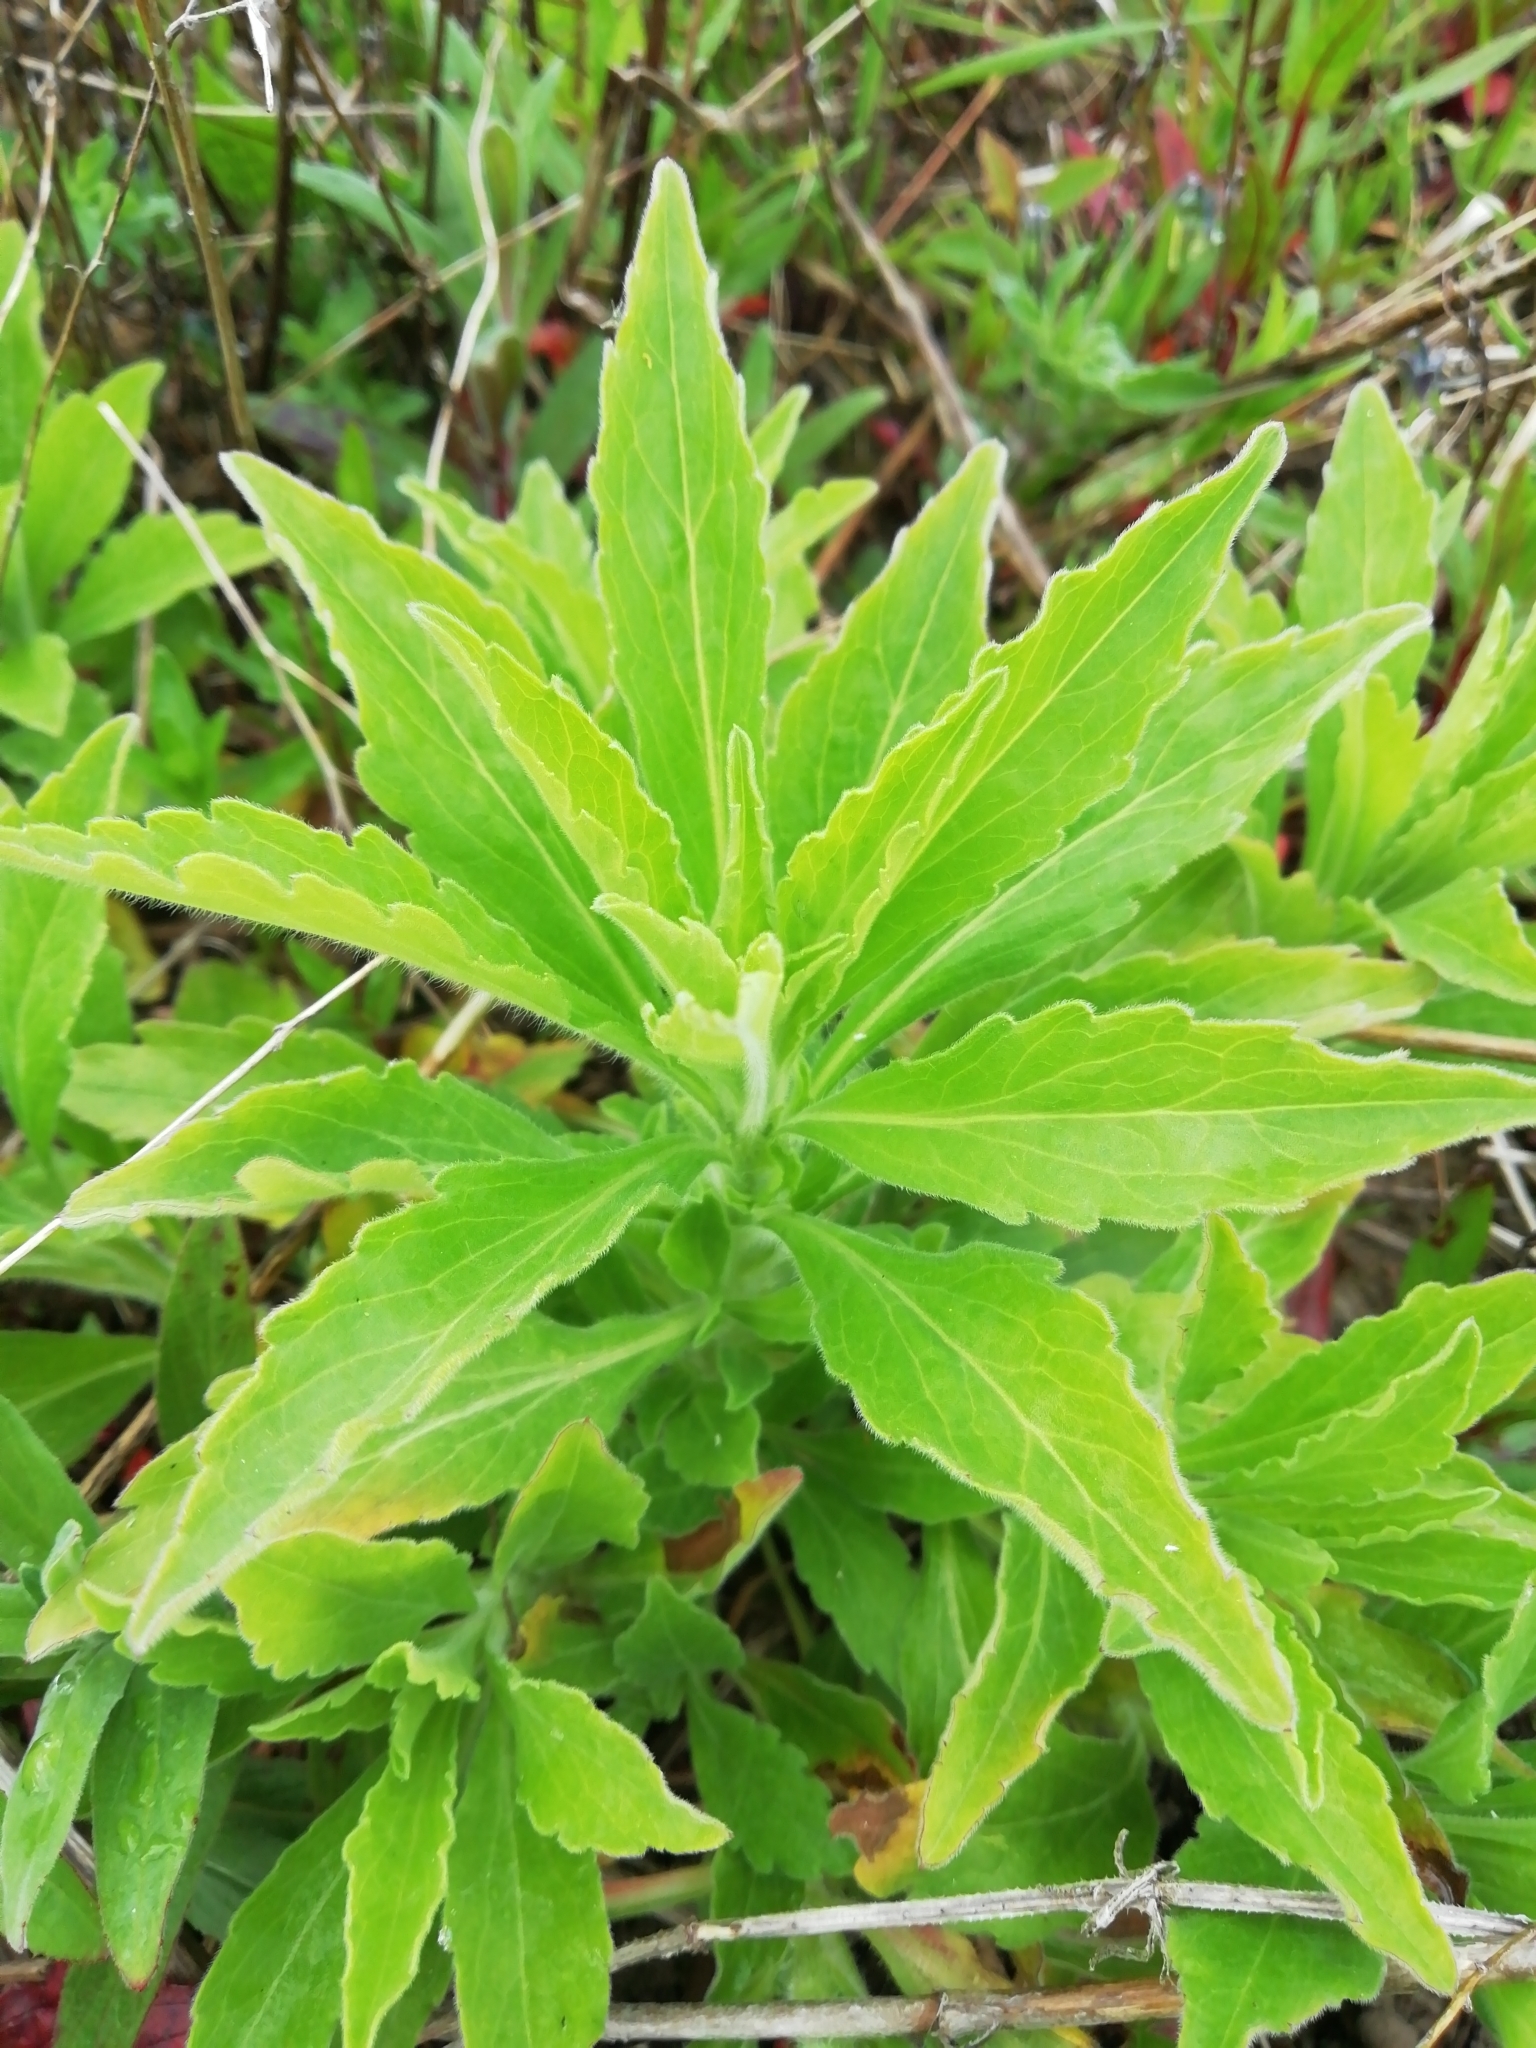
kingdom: Plantae
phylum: Tracheophyta
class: Magnoliopsida
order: Asterales
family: Asteraceae
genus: Erigeron
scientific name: Erigeron sumatrensis
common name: Daisy
